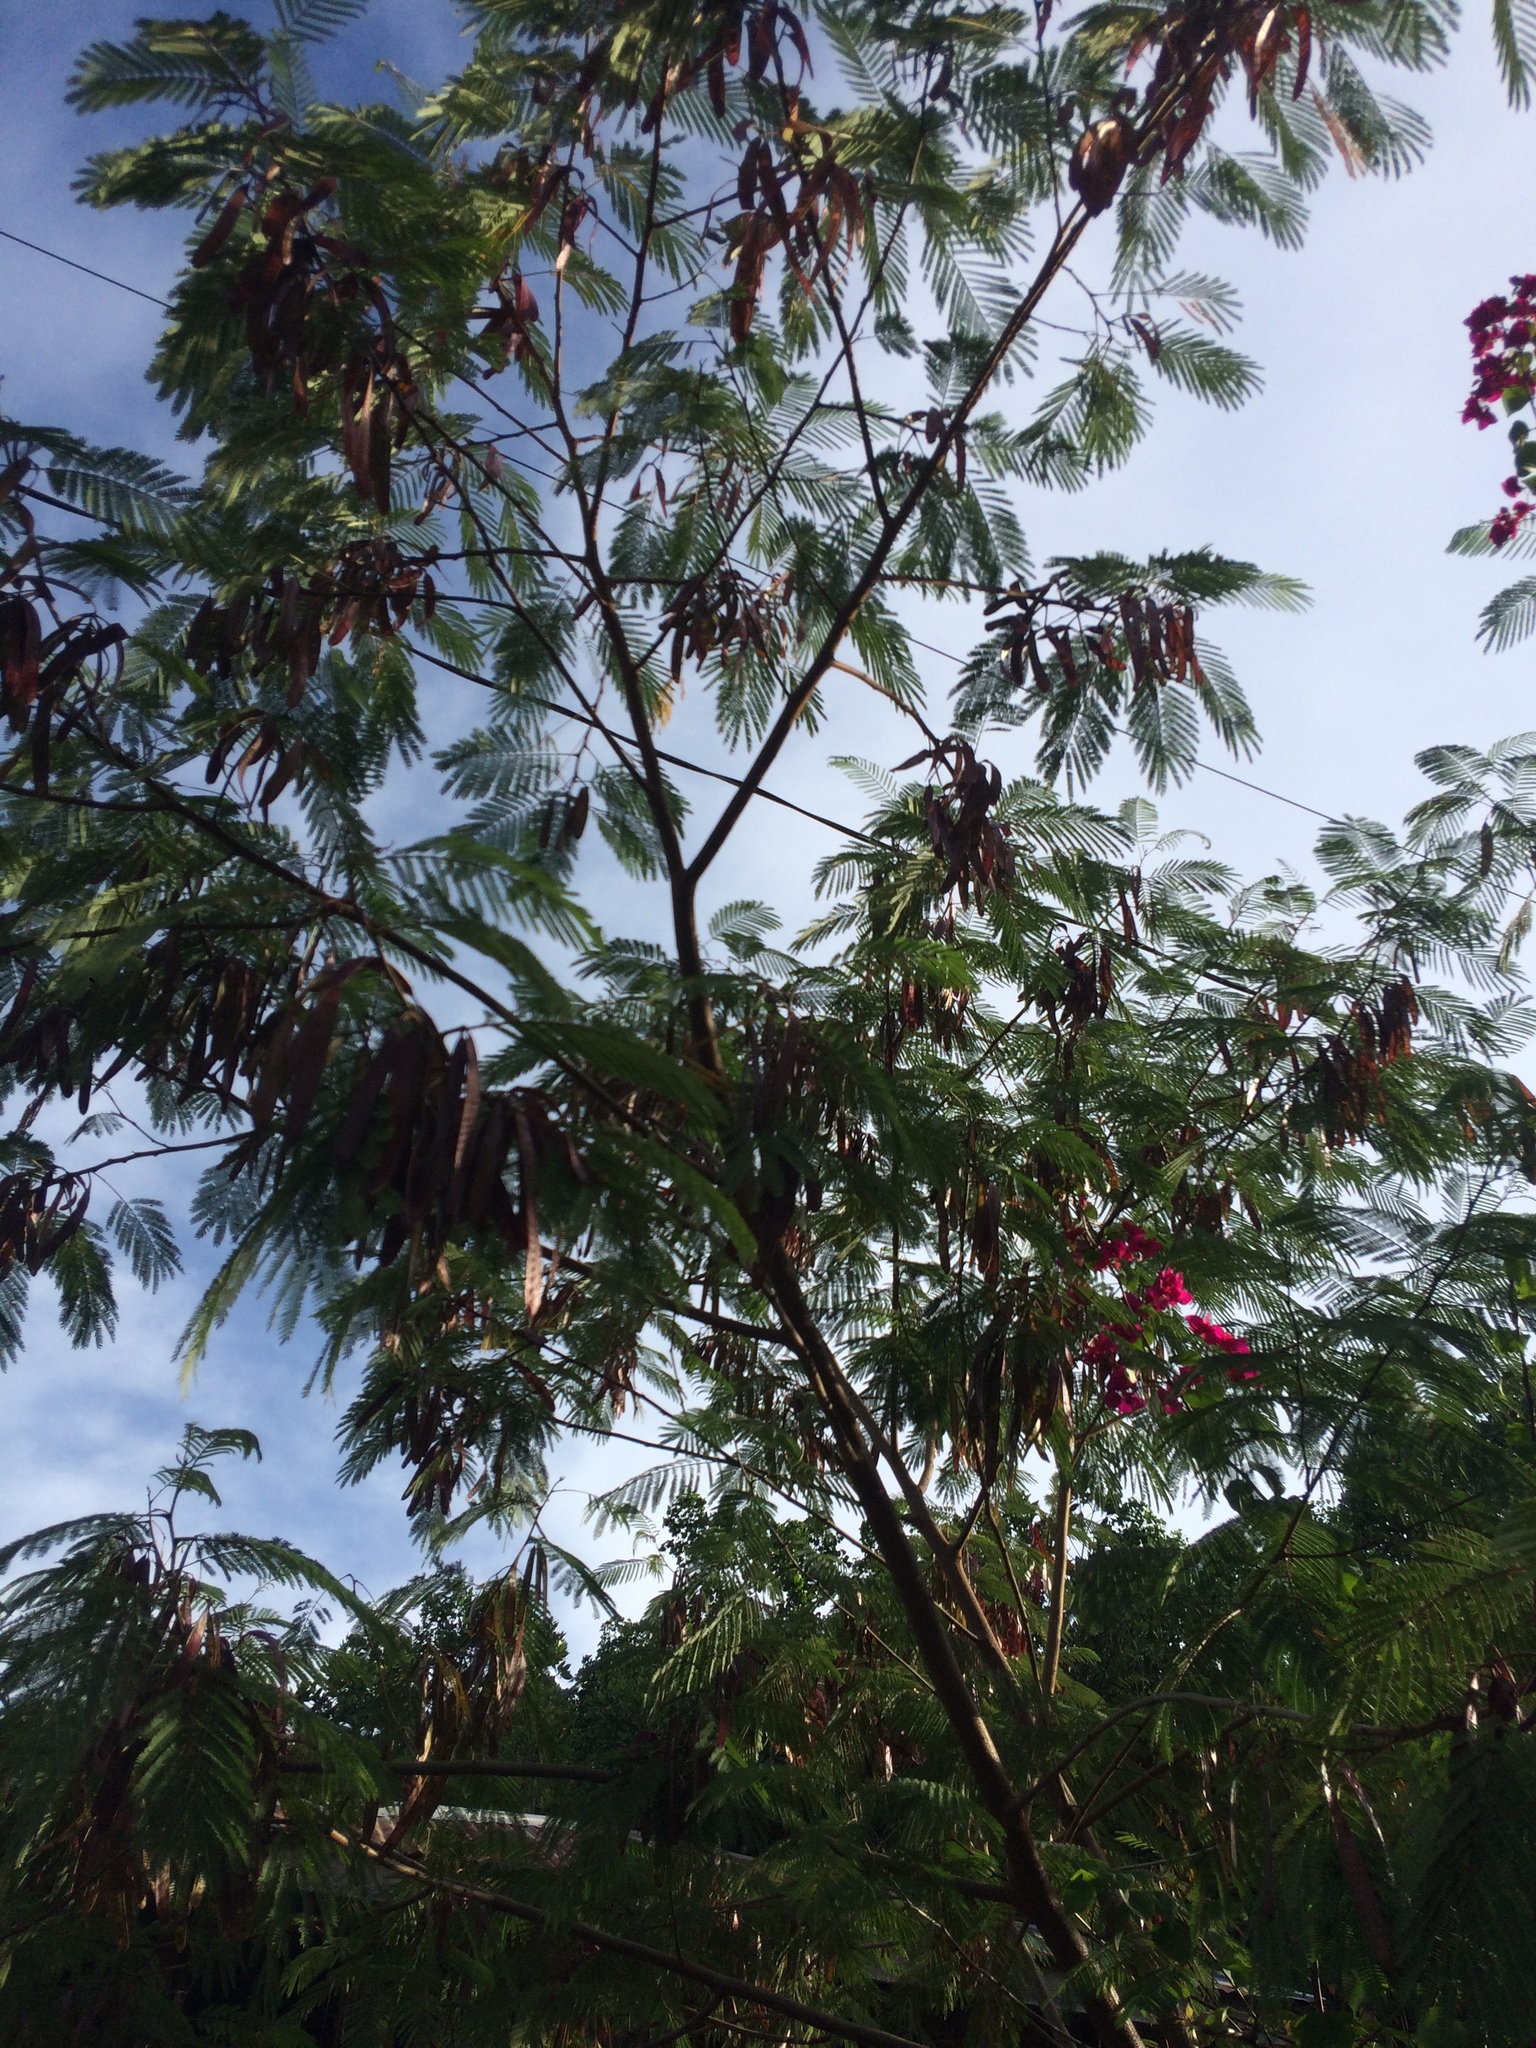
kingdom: Plantae
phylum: Tracheophyta
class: Magnoliopsida
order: Fabales
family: Fabaceae
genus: Leucaena
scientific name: Leucaena leucocephala
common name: White leadtree
